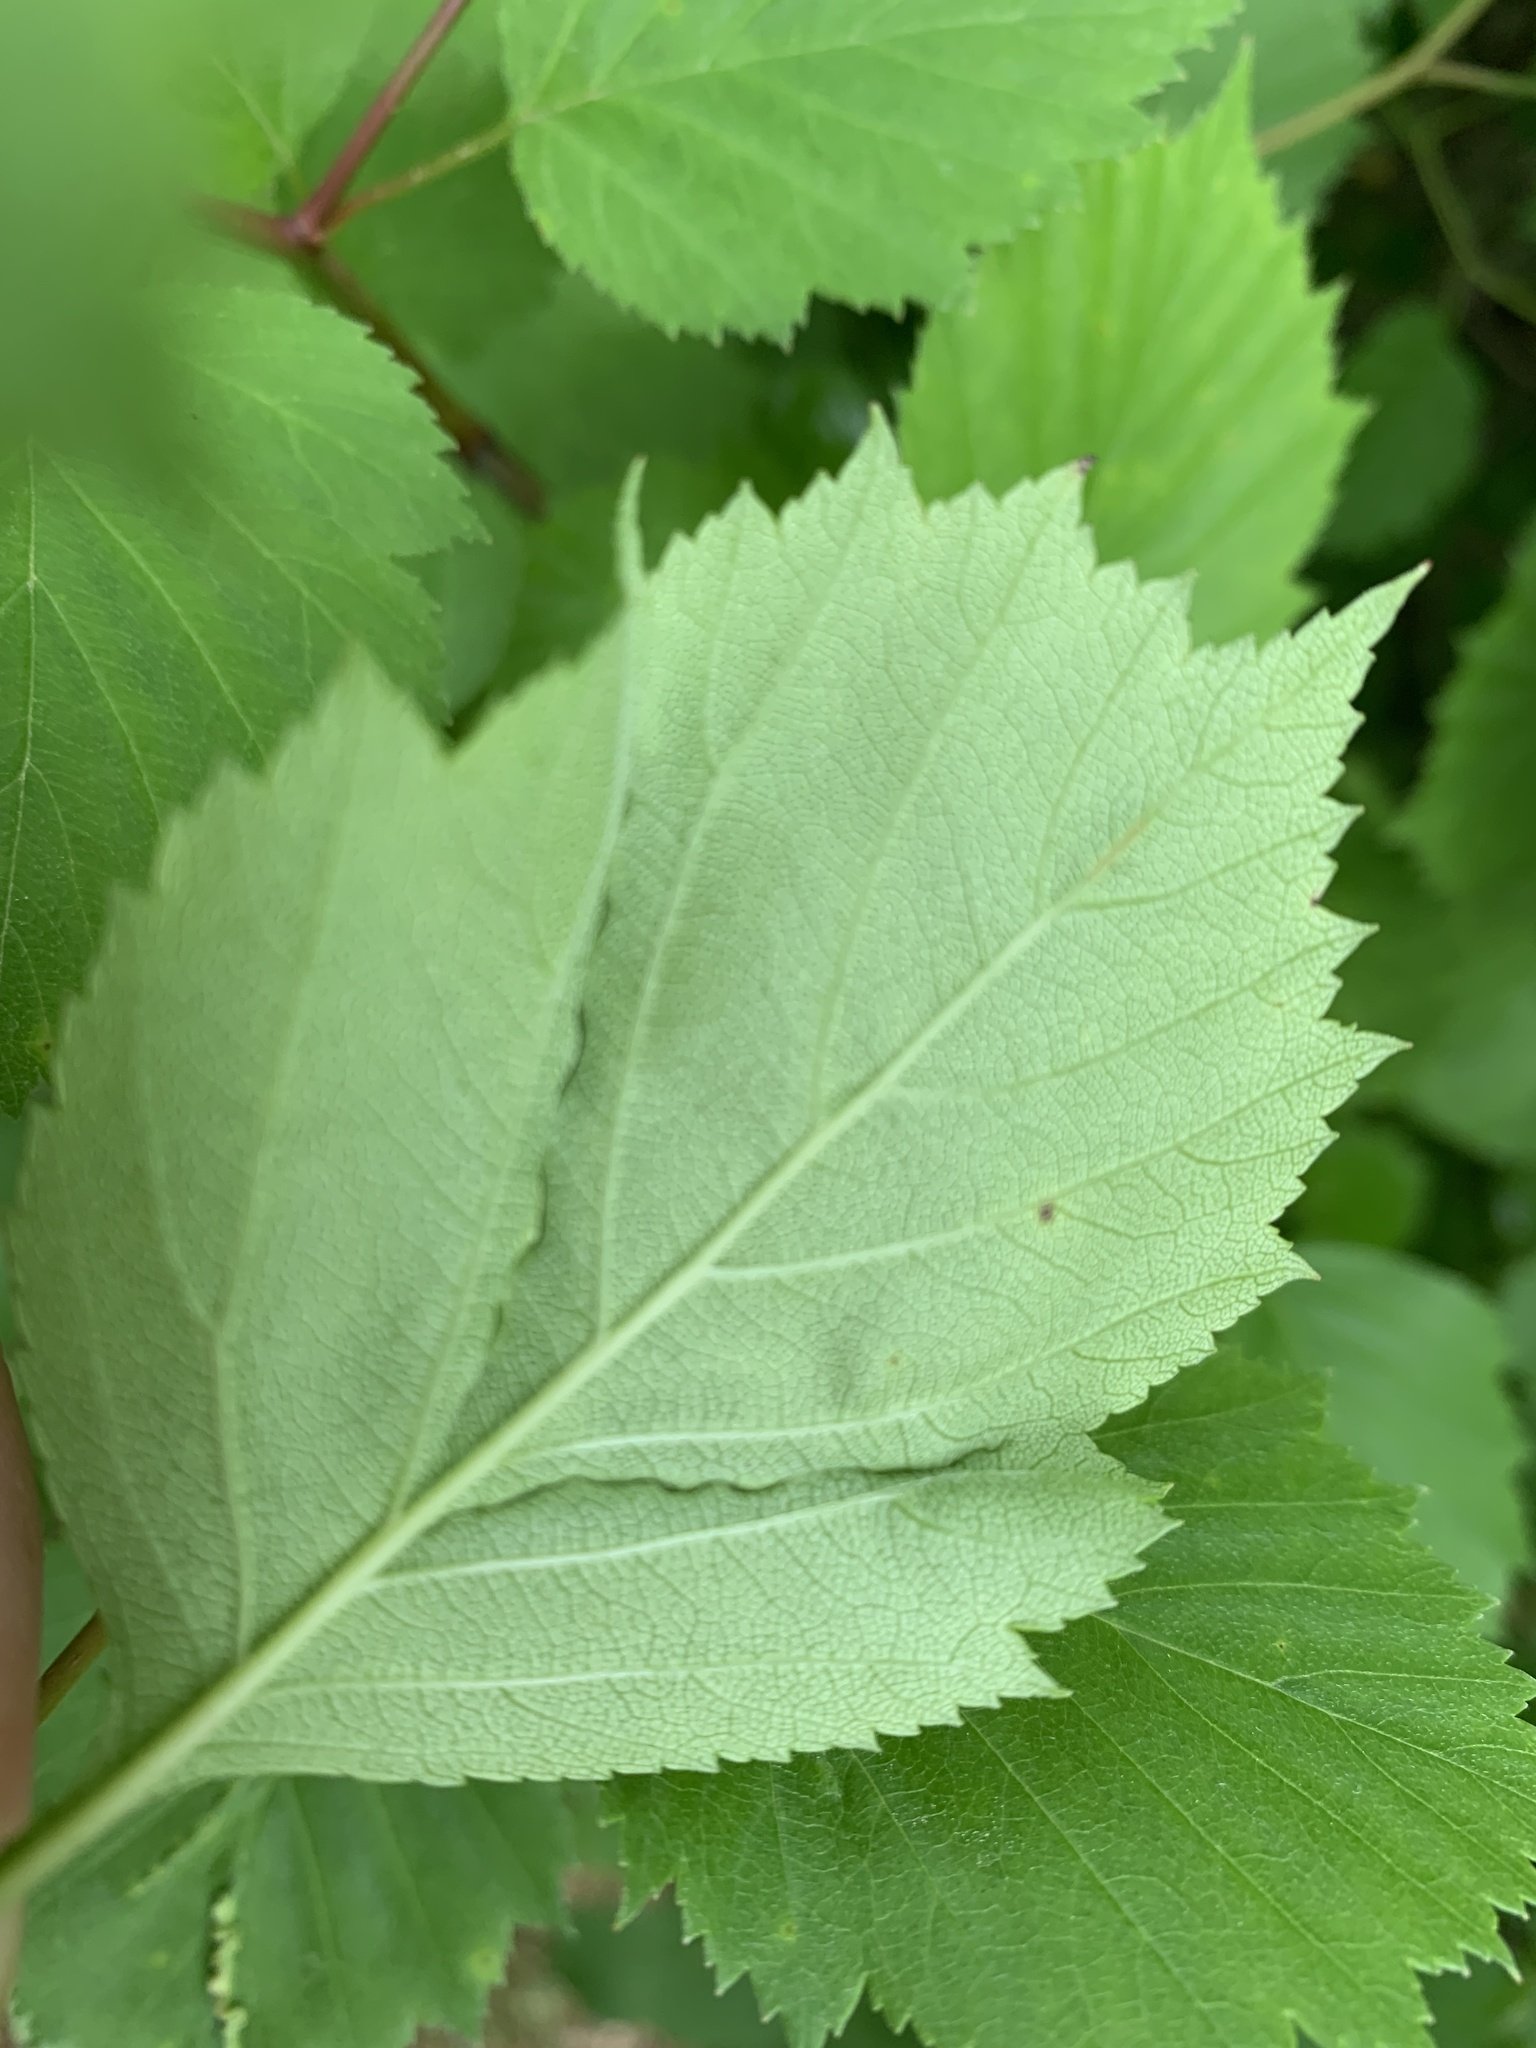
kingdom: Animalia
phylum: Arthropoda
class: Insecta
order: Diptera
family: Cecidomyiidae
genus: Blaesodiplosis
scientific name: Blaesodiplosis crataegifolia
